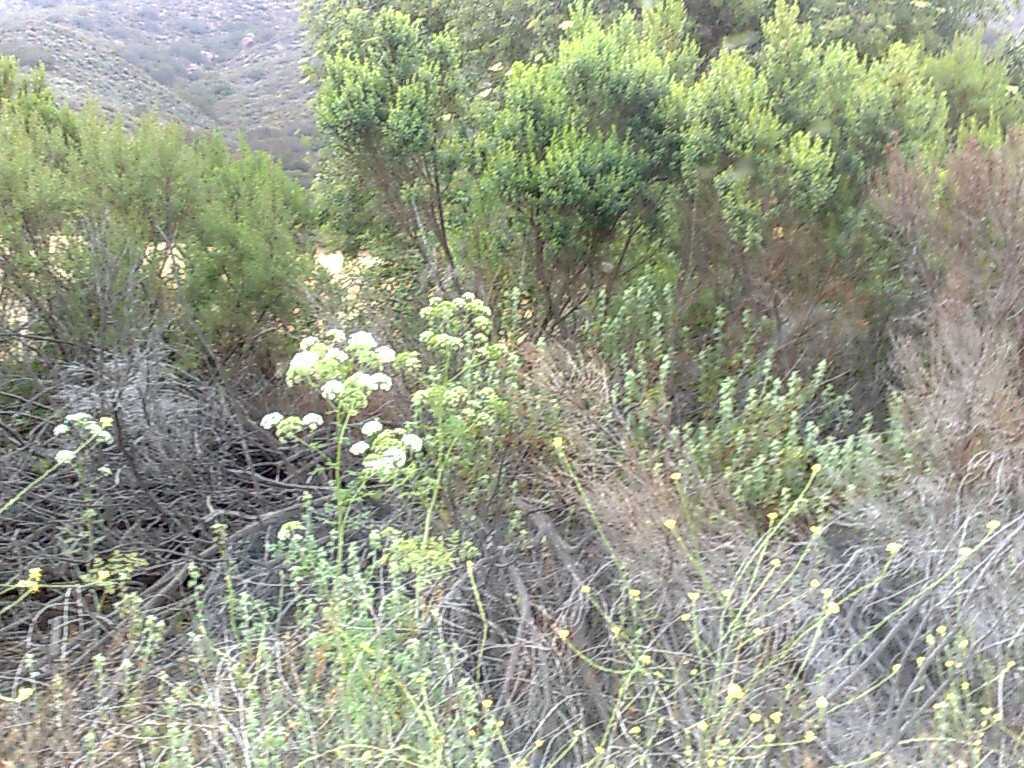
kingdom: Plantae
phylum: Tracheophyta
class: Magnoliopsida
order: Apiales
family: Apiaceae
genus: Conium
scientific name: Conium maculatum
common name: Hemlock
